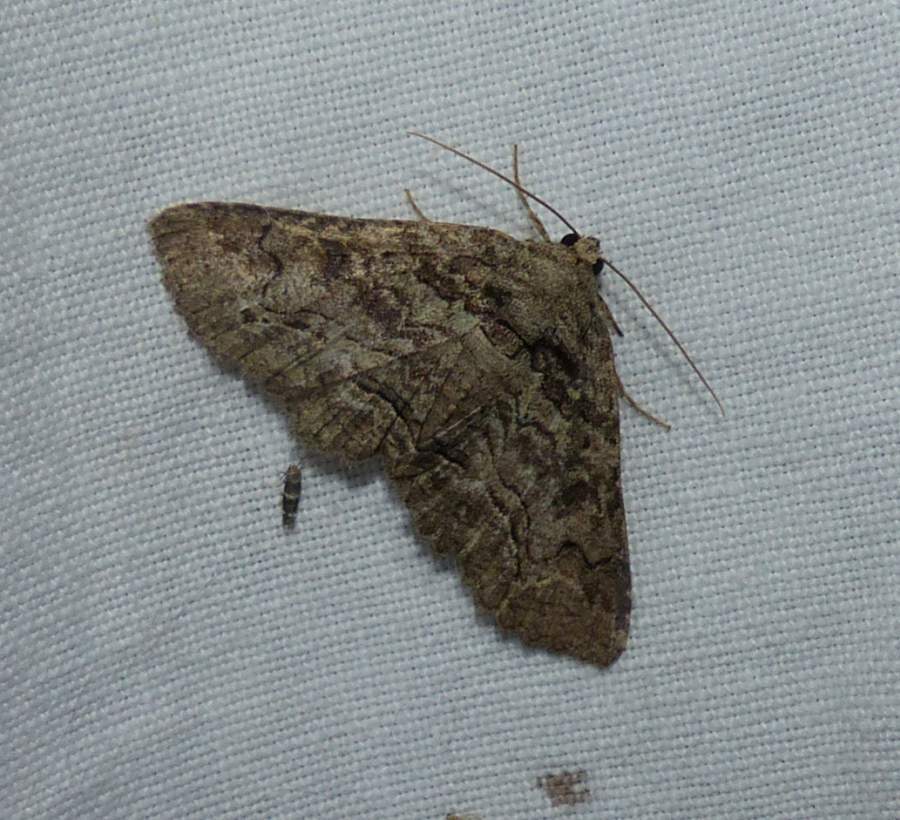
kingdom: Animalia
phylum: Arthropoda
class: Insecta
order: Lepidoptera
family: Erebidae
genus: Zale
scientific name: Zale phaeocapna
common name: Hazel zale moth
